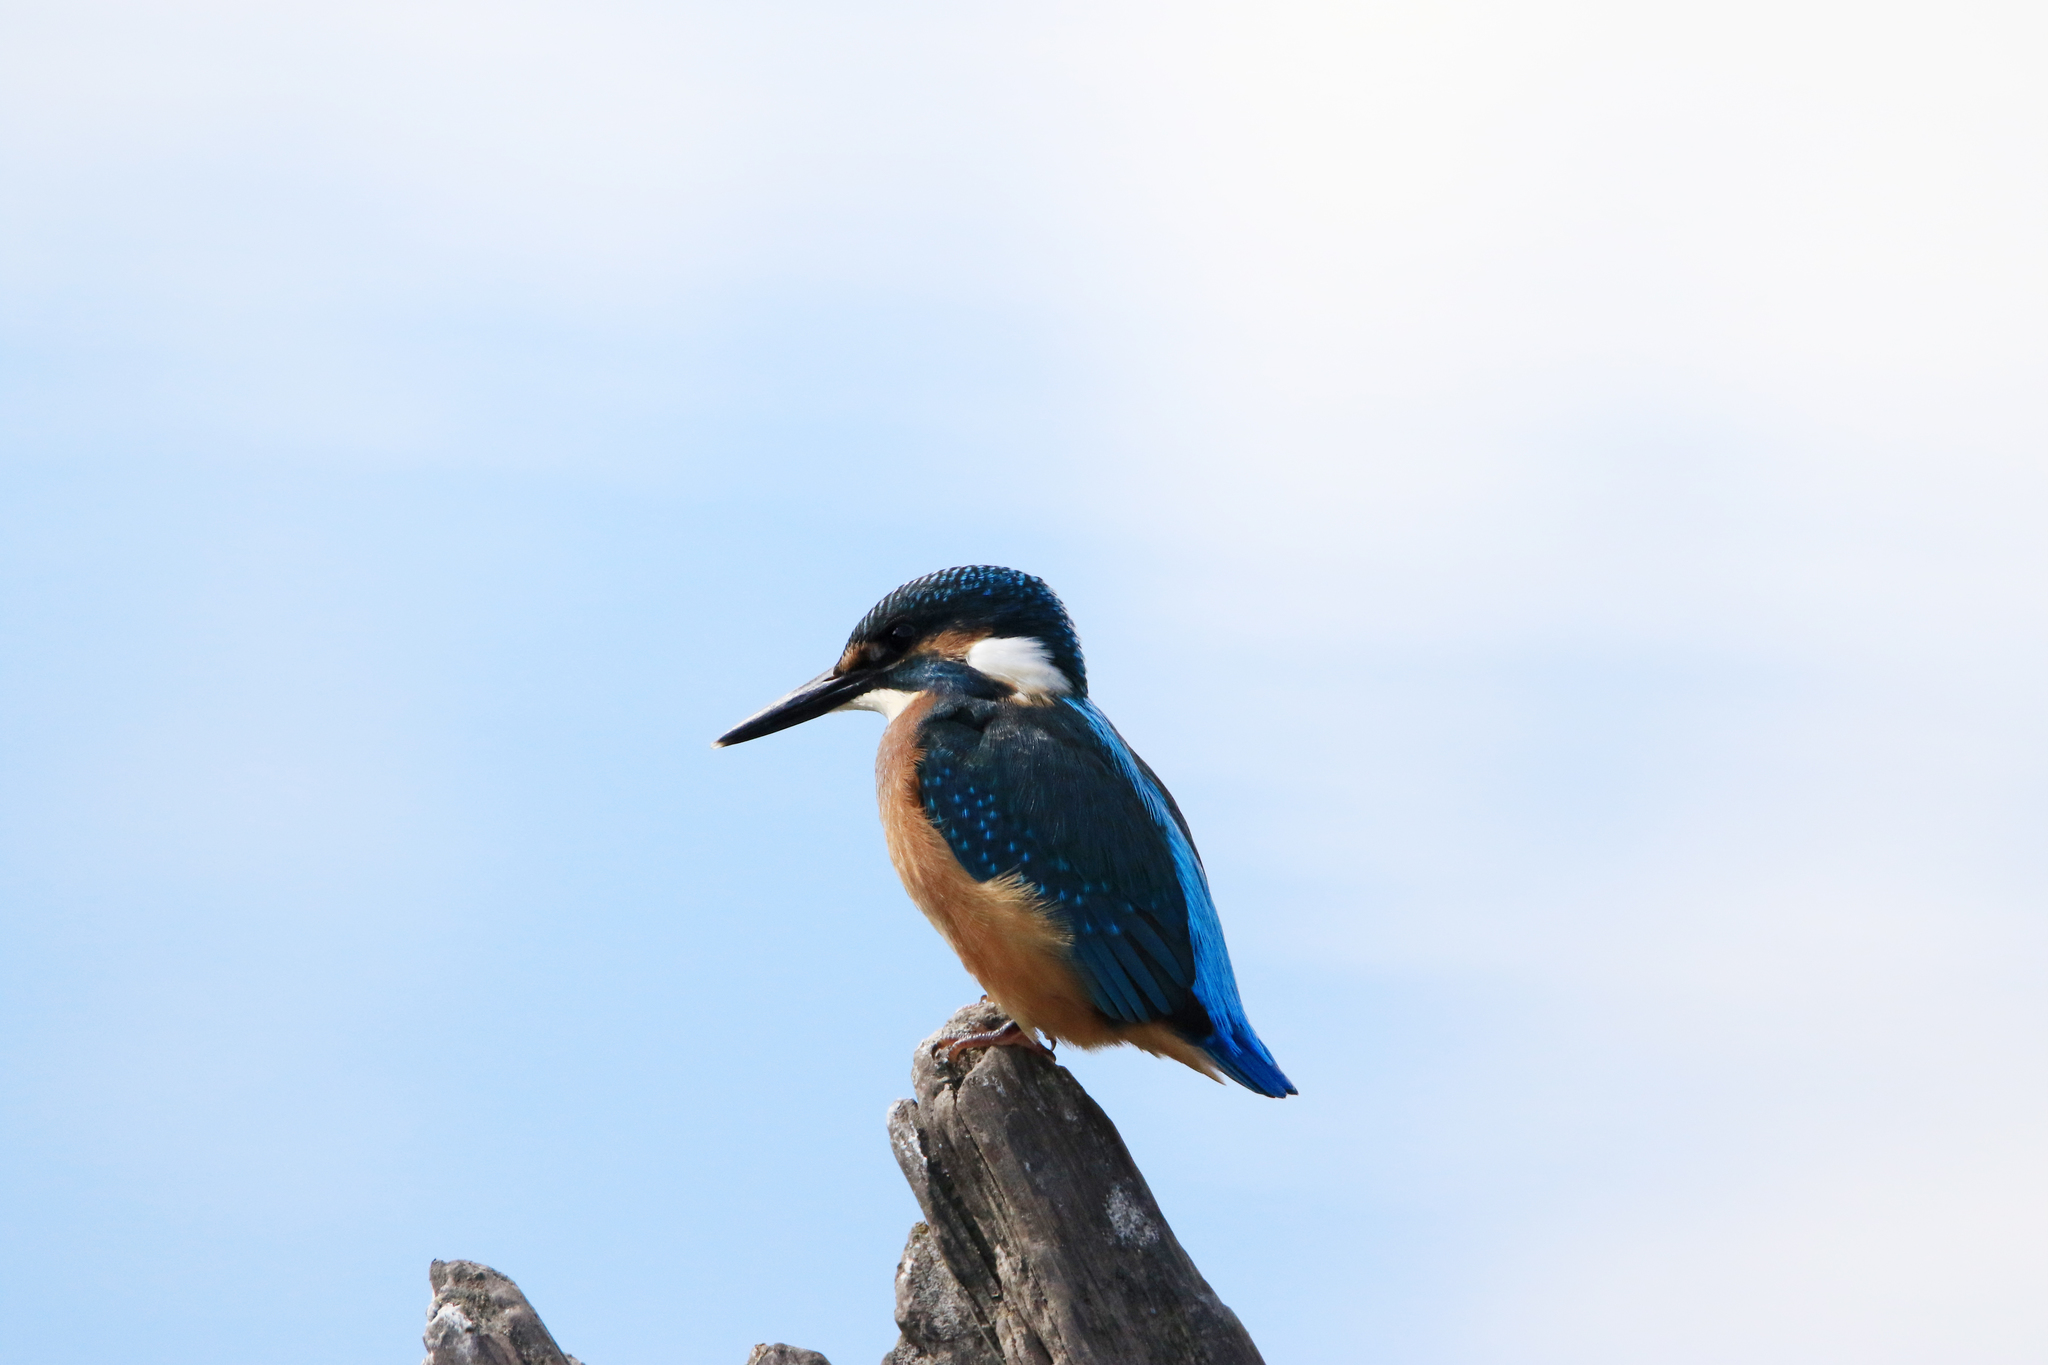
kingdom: Animalia
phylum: Chordata
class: Aves
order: Coraciiformes
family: Alcedinidae
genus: Alcedo
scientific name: Alcedo atthis
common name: Common kingfisher
